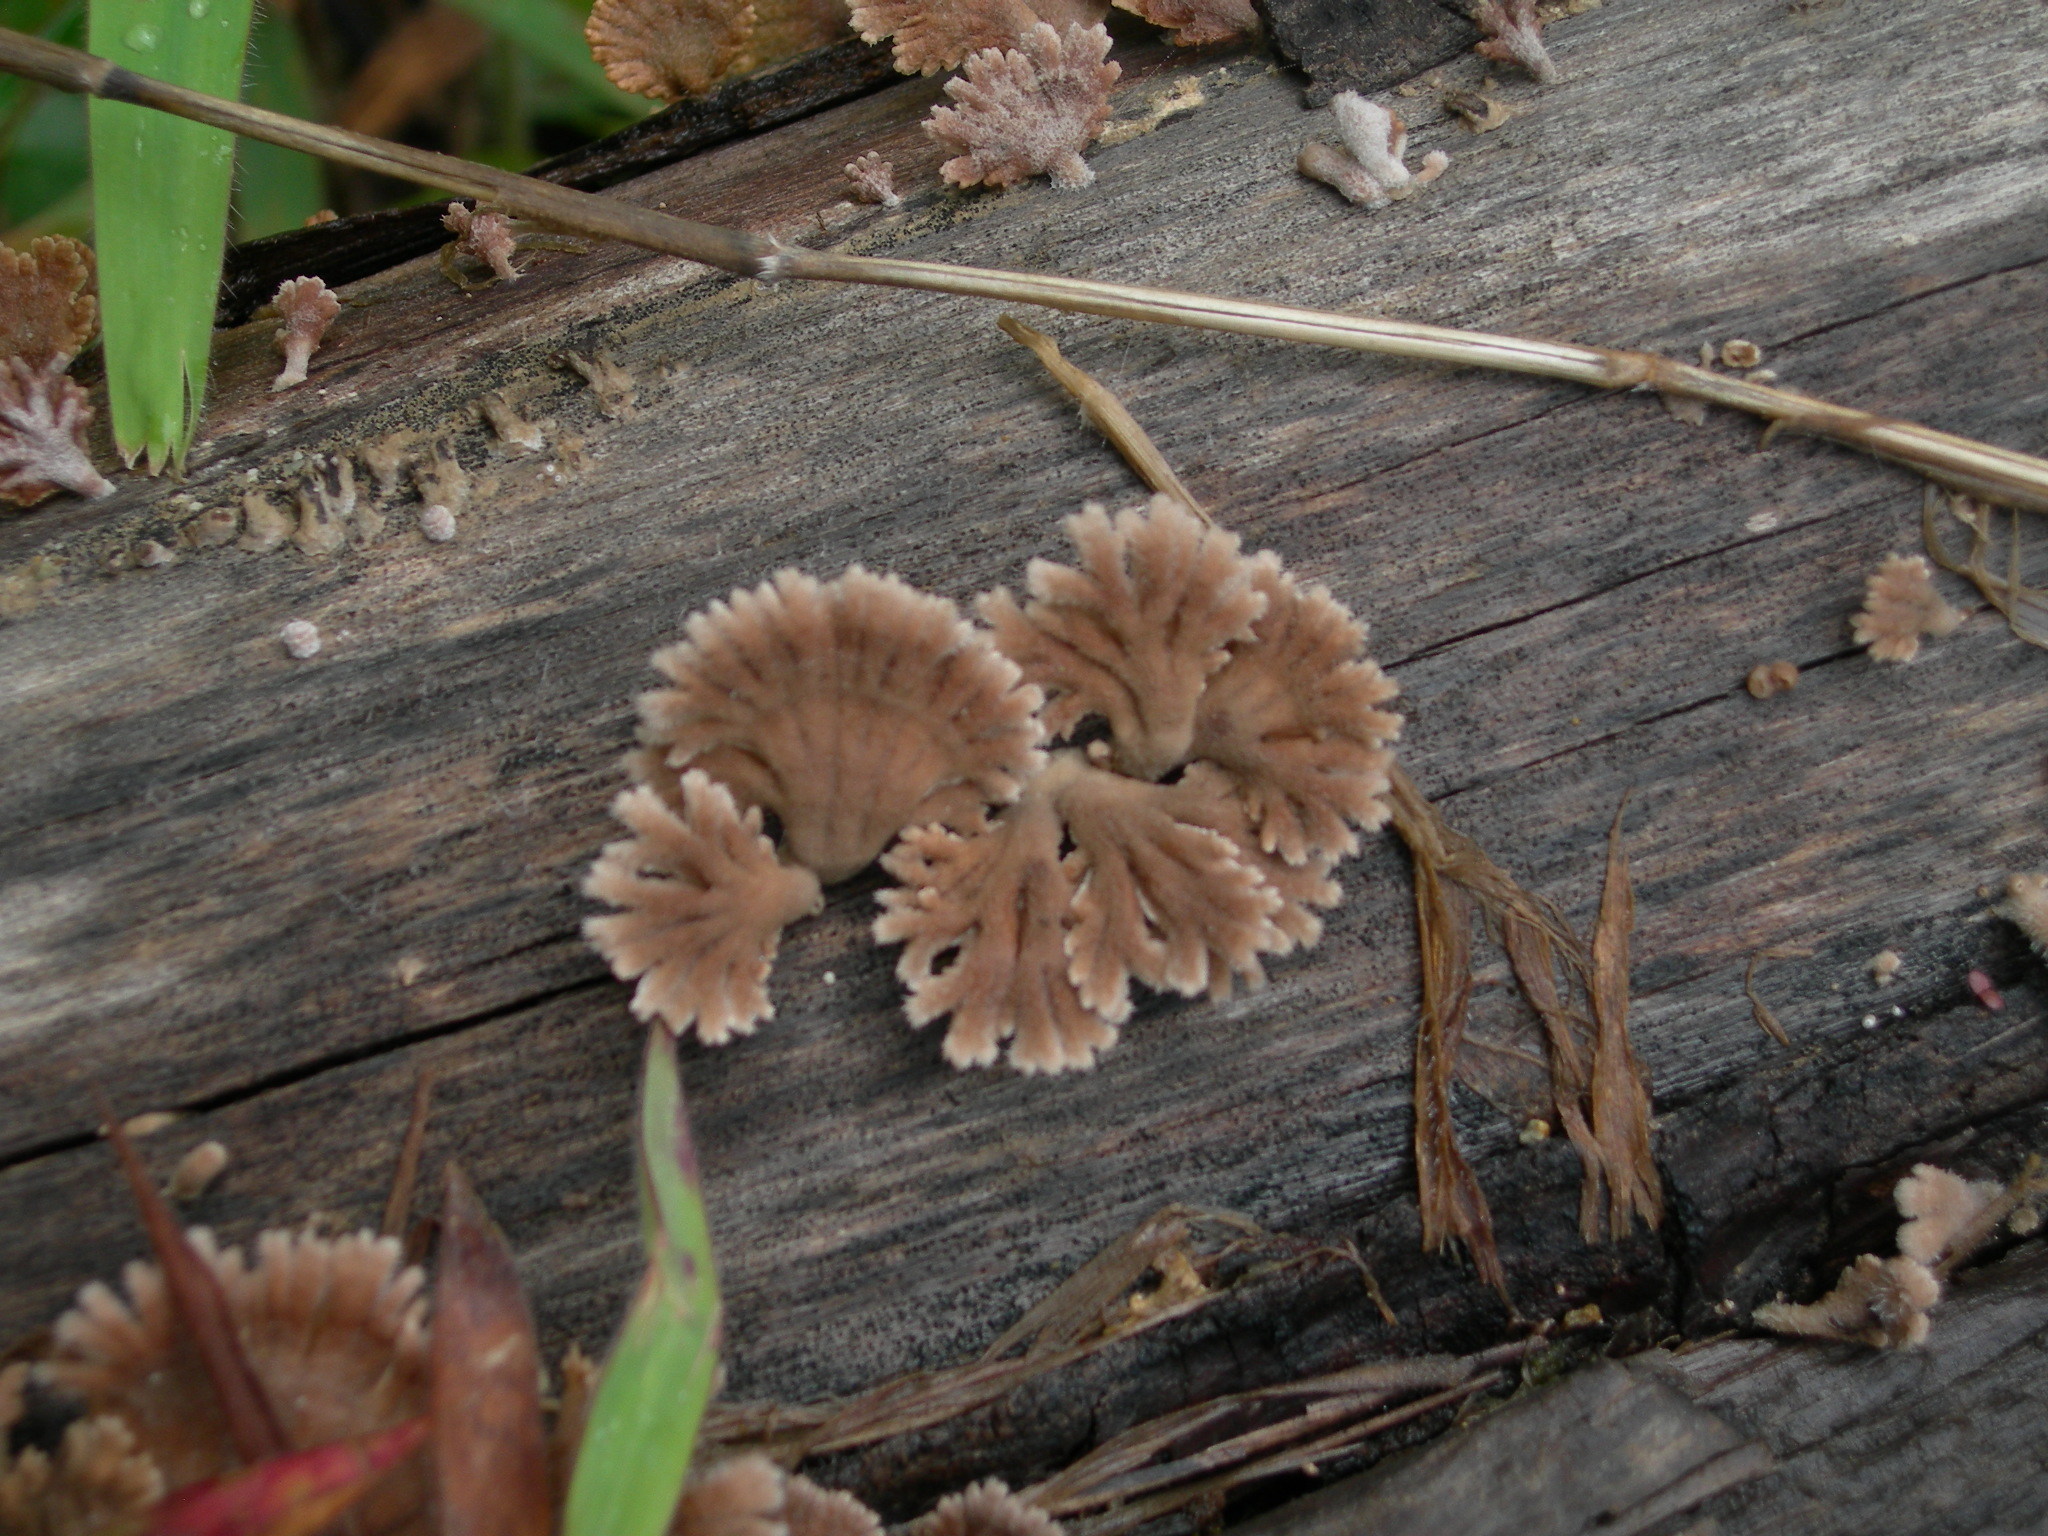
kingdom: Fungi
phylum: Basidiomycota
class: Agaricomycetes
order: Agaricales
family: Schizophyllaceae
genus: Schizophyllum
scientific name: Schizophyllum umbrinum
